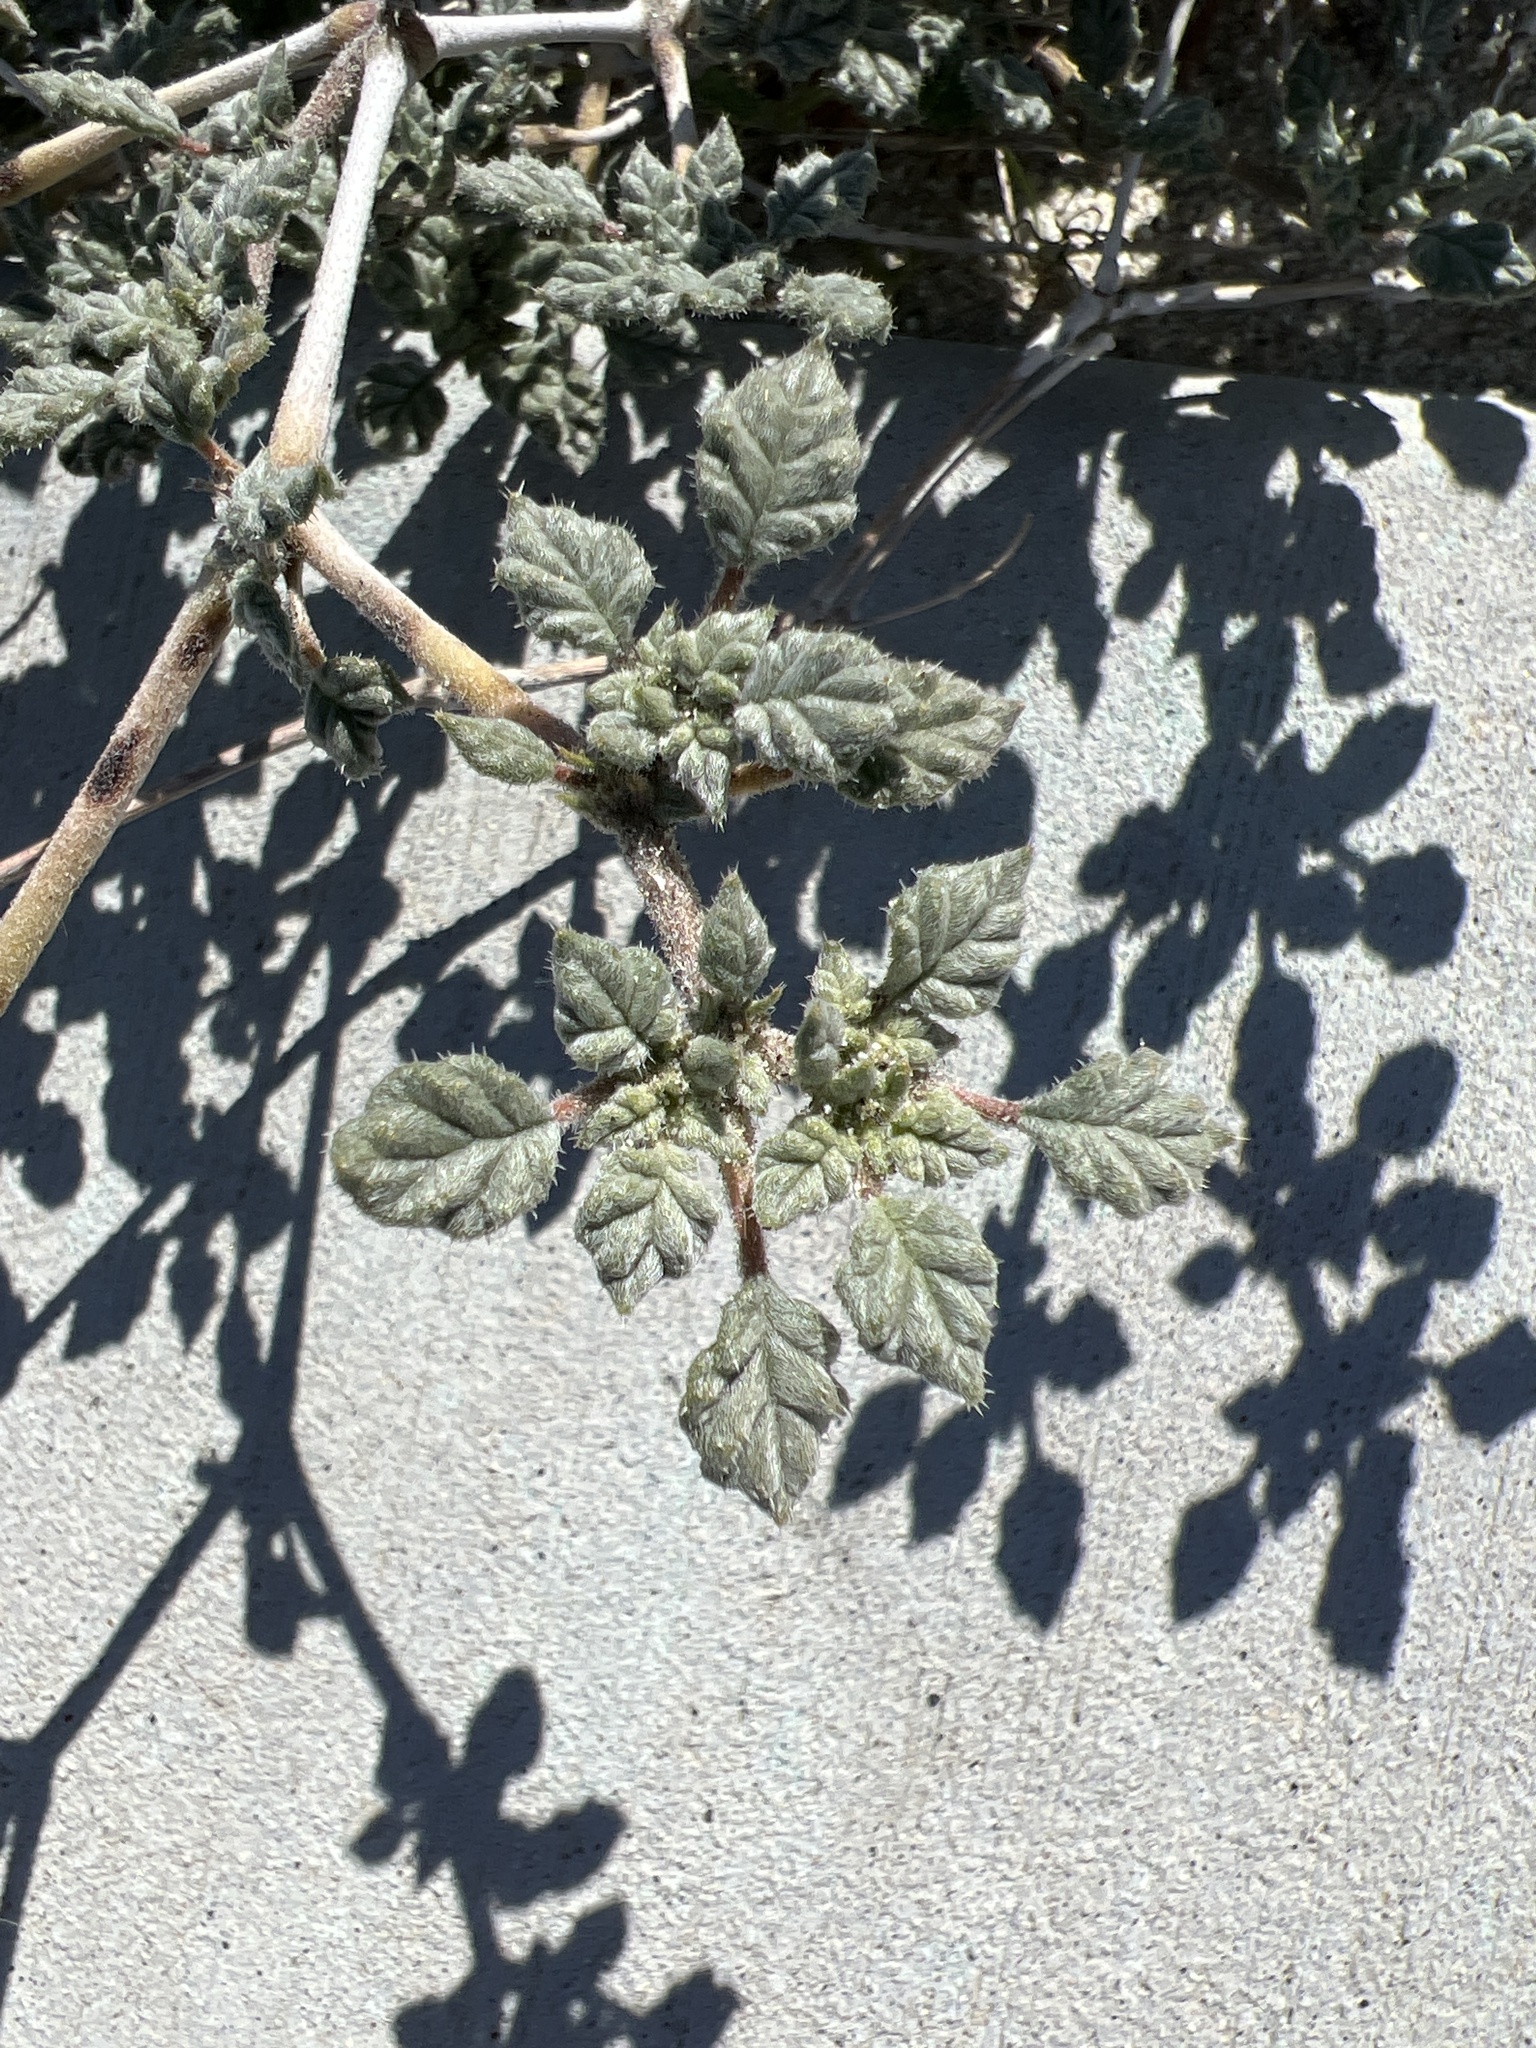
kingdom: Plantae
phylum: Tracheophyta
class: Magnoliopsida
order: Boraginales
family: Ehretiaceae
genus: Tiquilia
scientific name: Tiquilia palmeri
